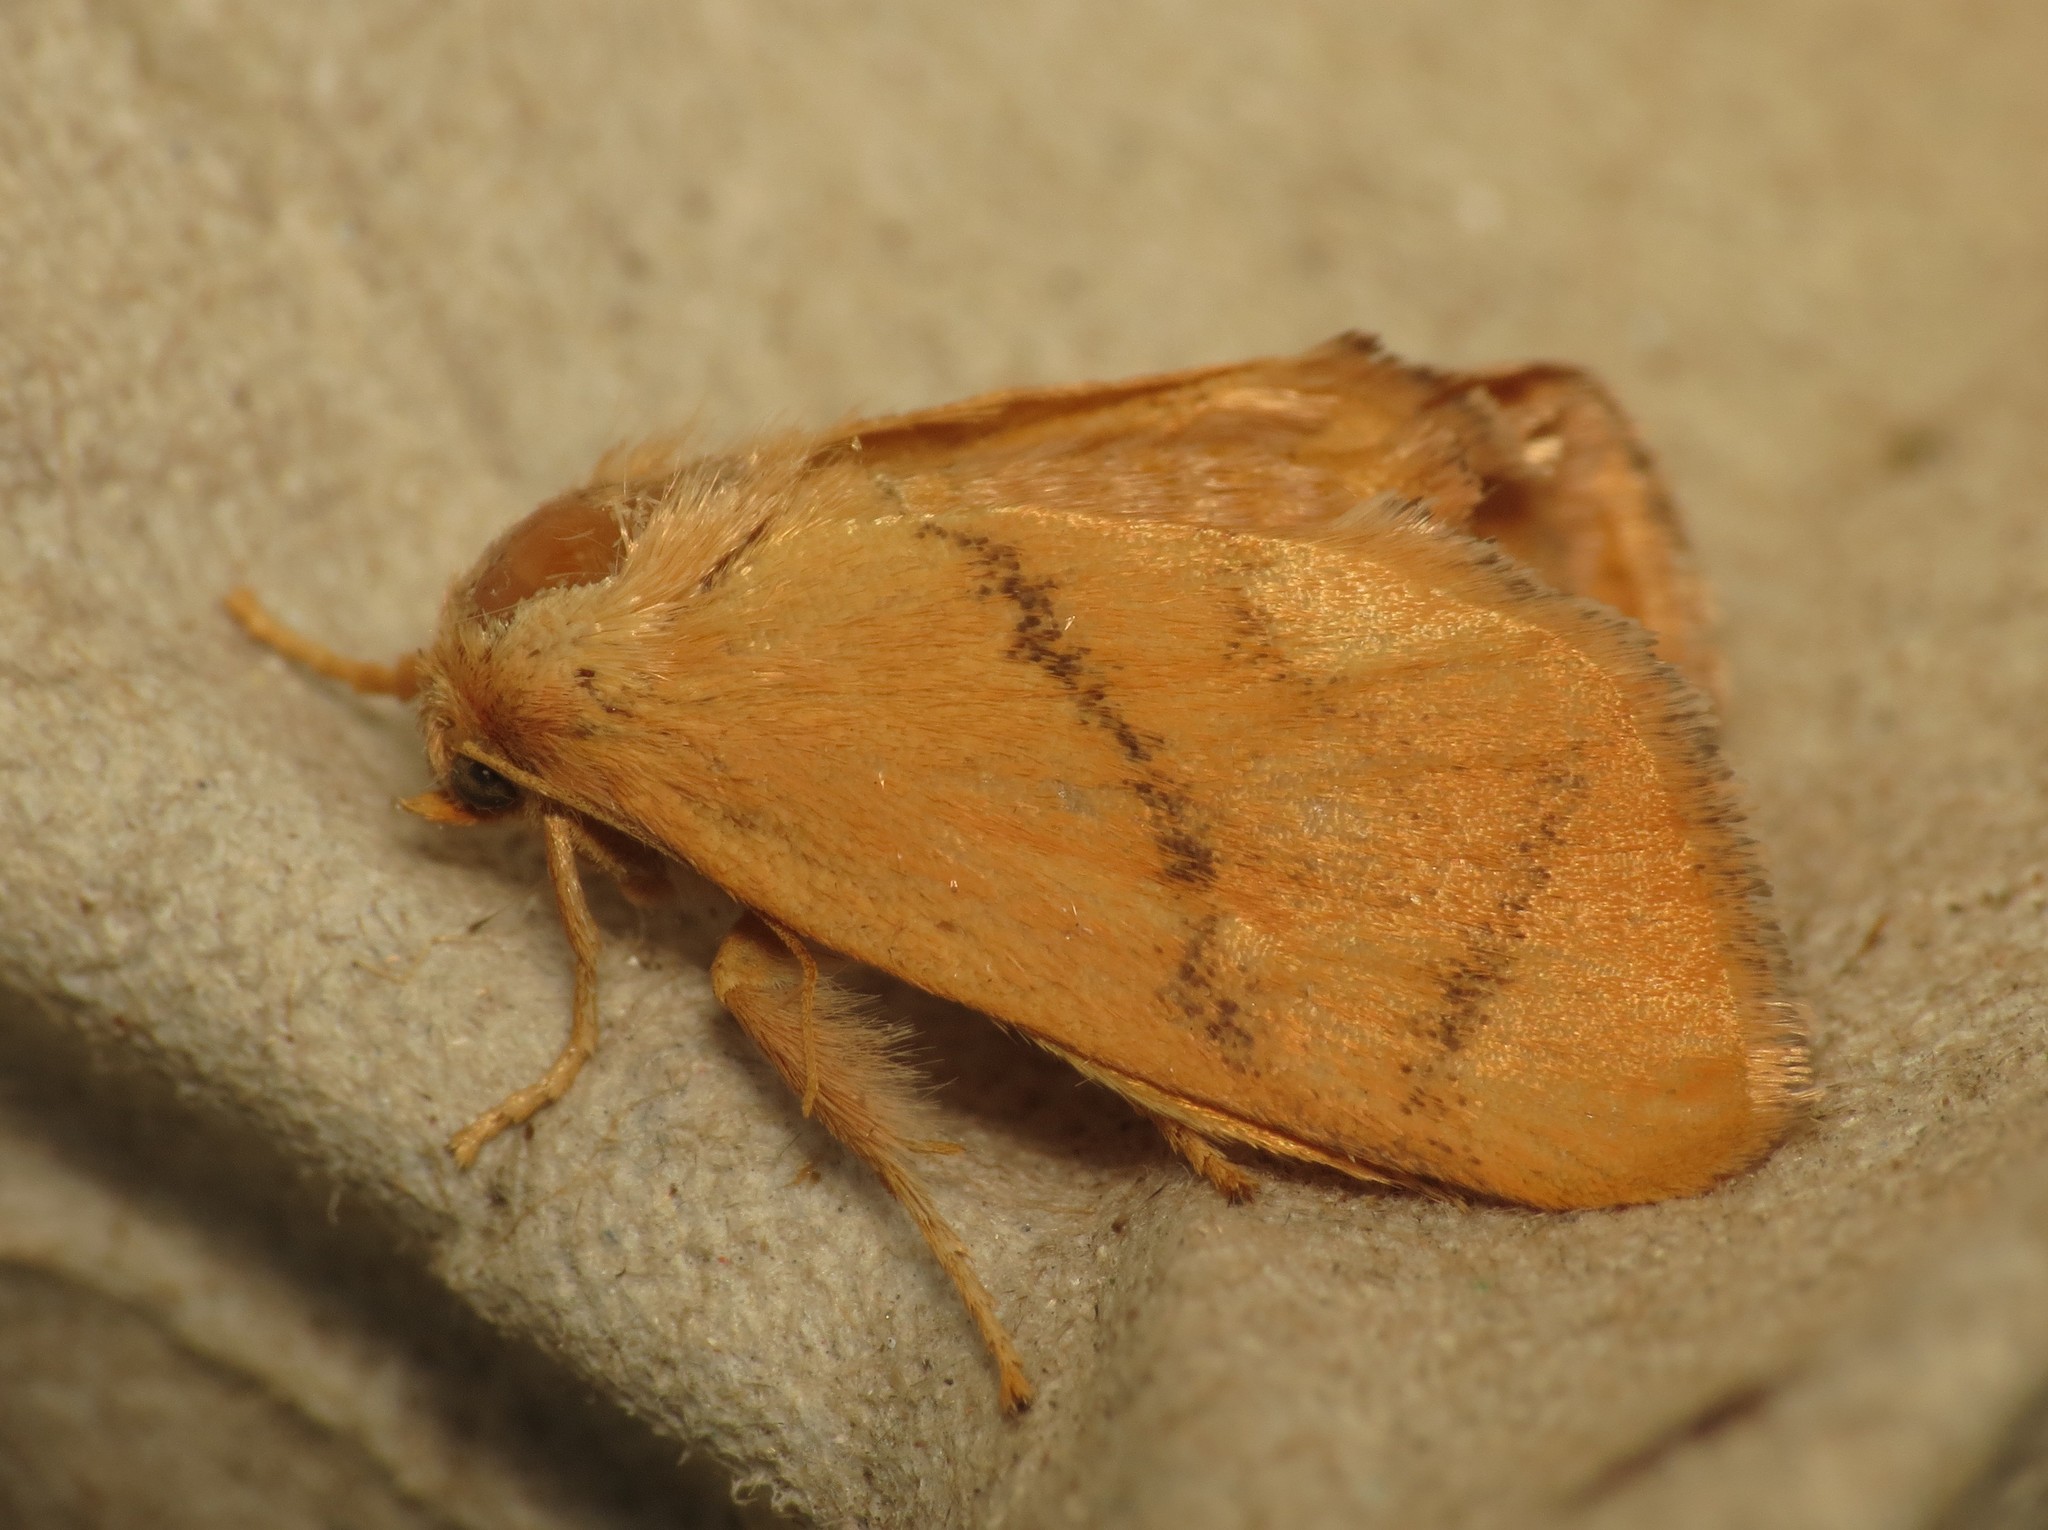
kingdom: Animalia
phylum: Arthropoda
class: Insecta
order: Lepidoptera
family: Limacodidae
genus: Apoda
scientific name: Apoda limacodes
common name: Festoon
